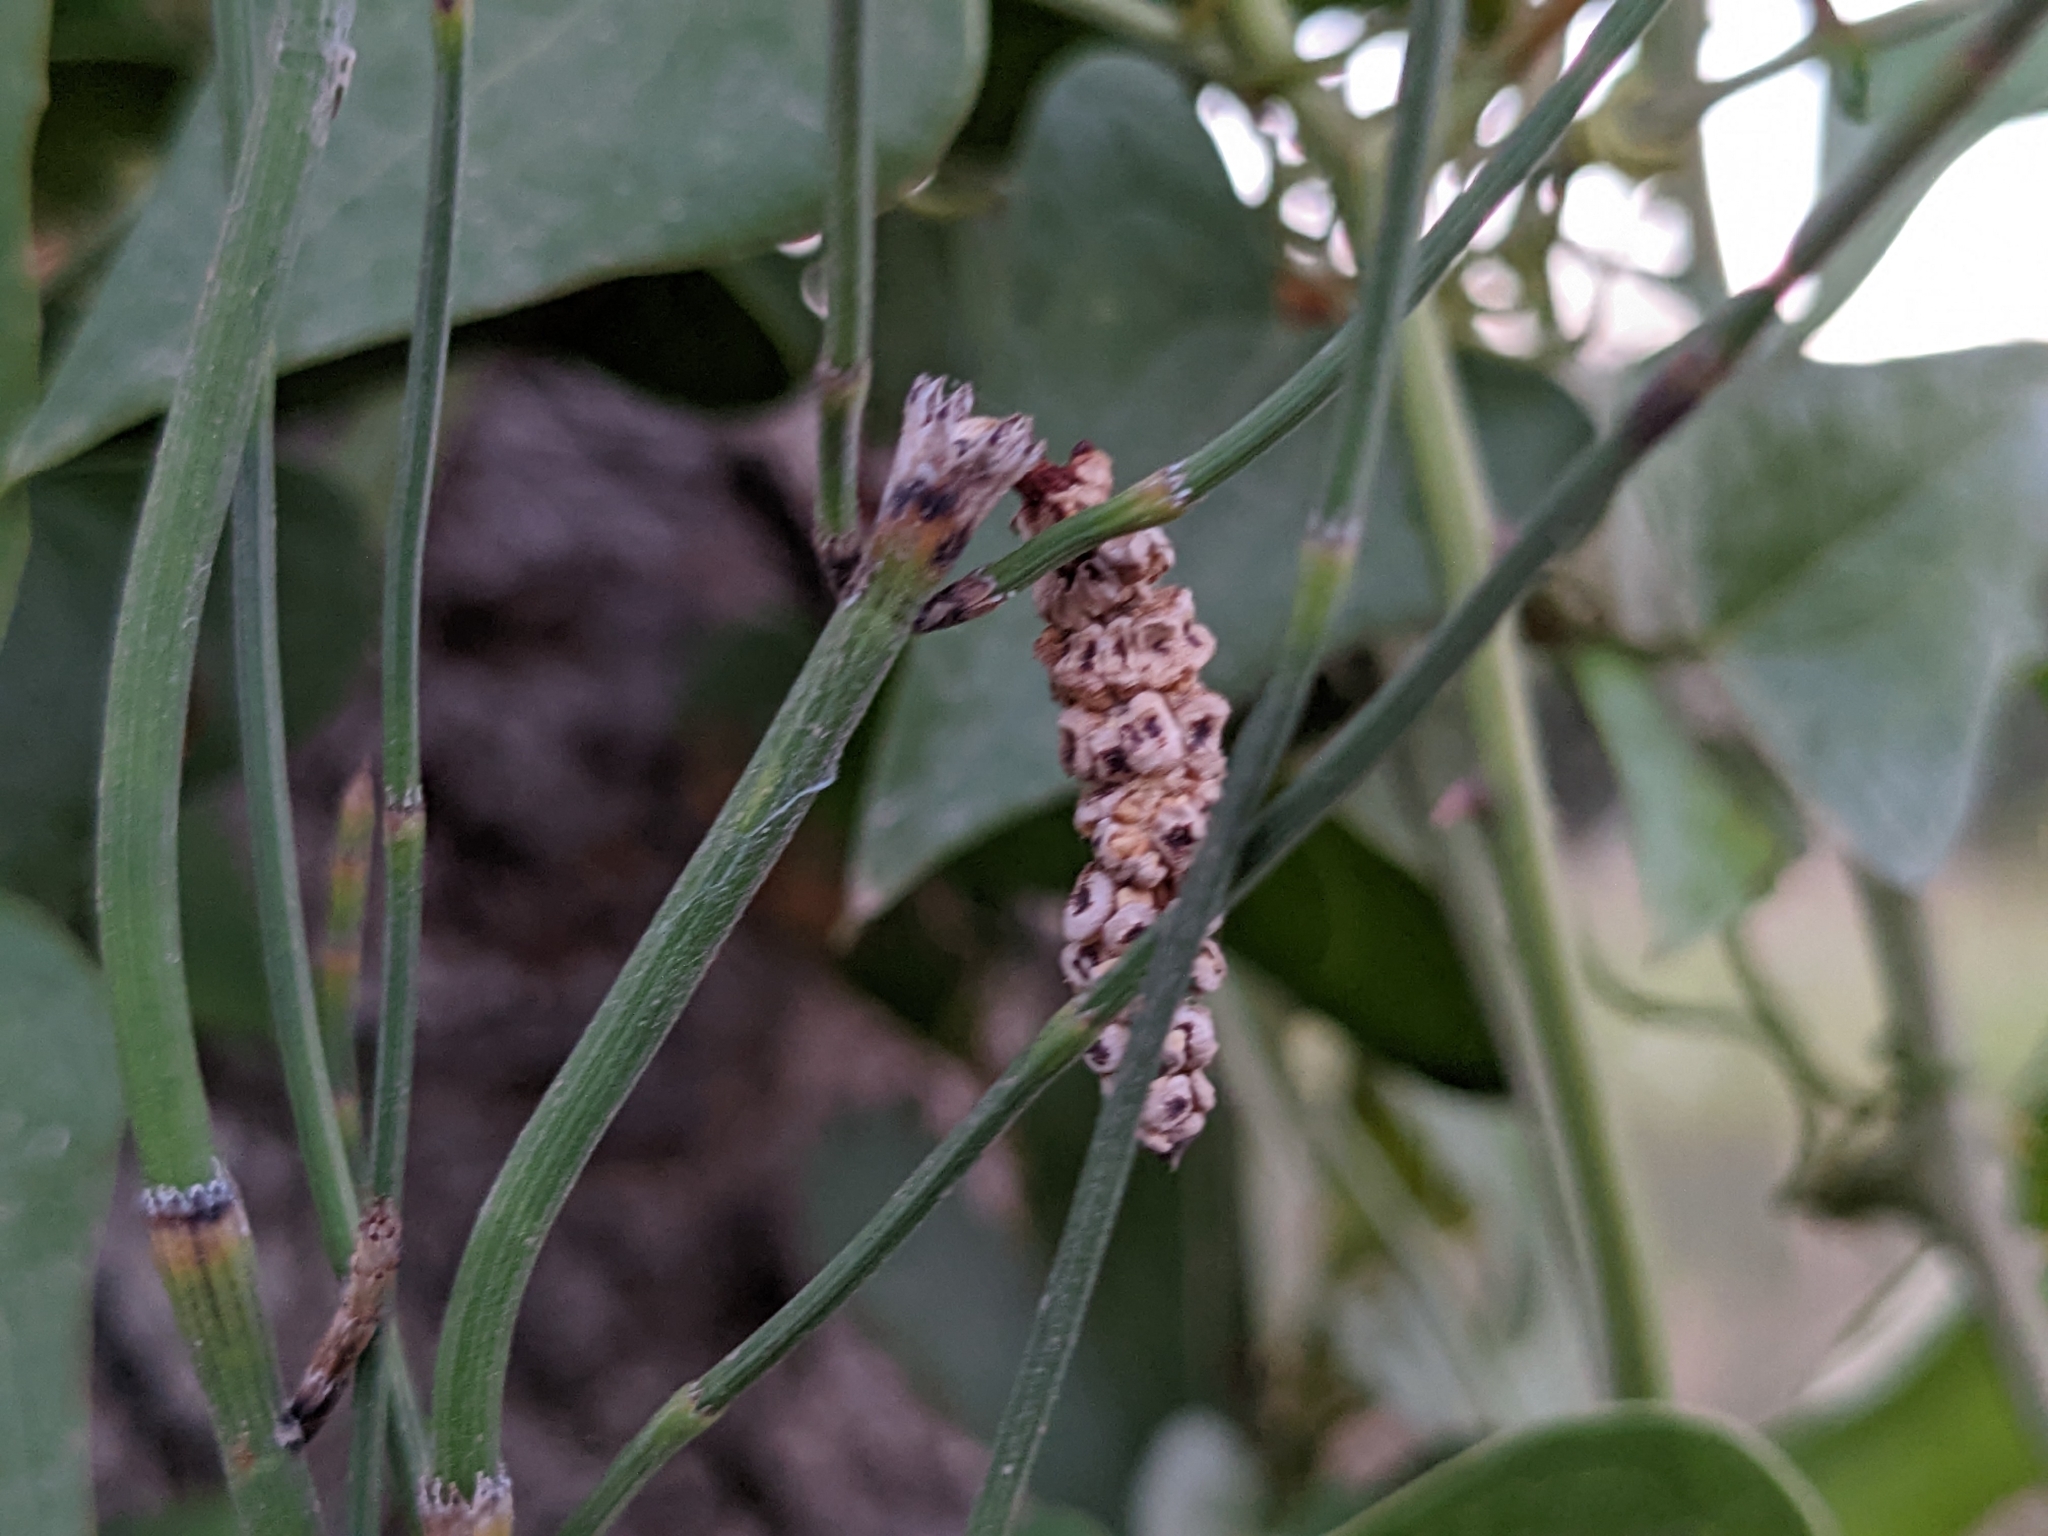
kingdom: Plantae
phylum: Tracheophyta
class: Polypodiopsida
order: Equisetales
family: Equisetaceae
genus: Equisetum
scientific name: Equisetum ramosissimum
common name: Branched horsetail
